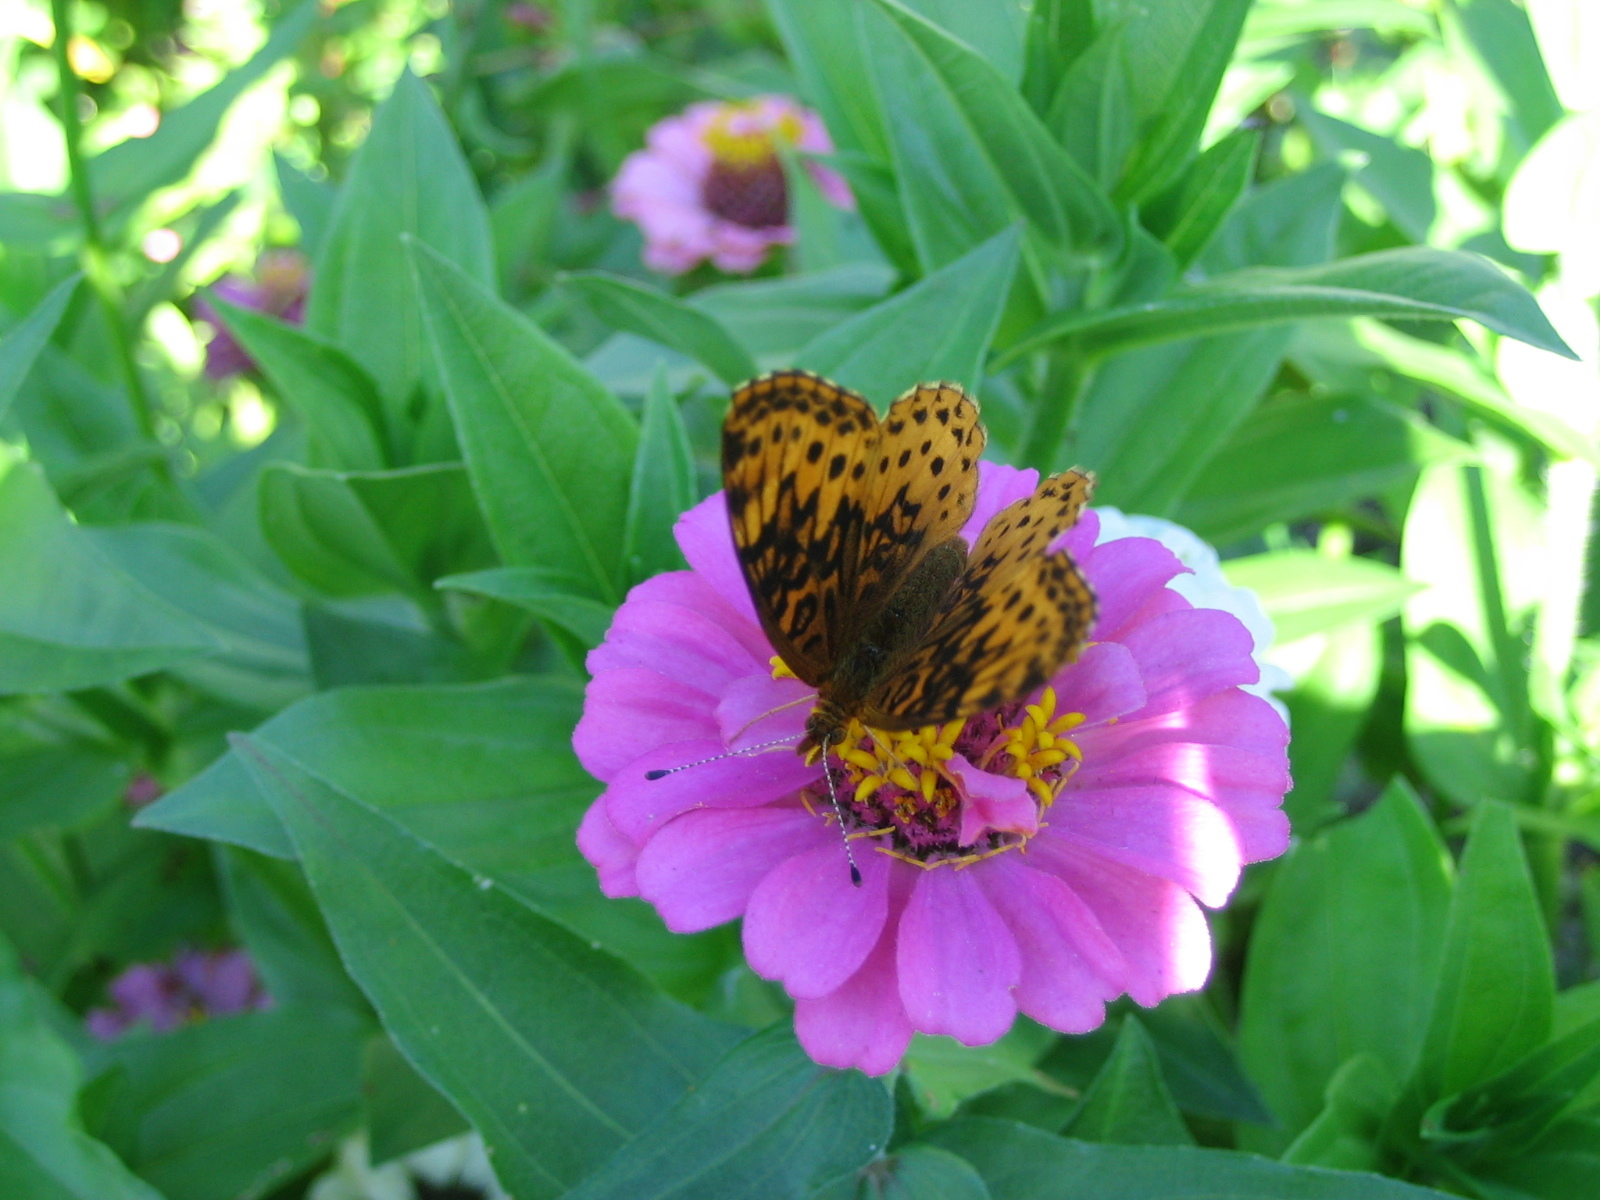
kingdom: Animalia
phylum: Arthropoda
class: Insecta
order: Lepidoptera
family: Nymphalidae
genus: Clossiana
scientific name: Clossiana toddi
